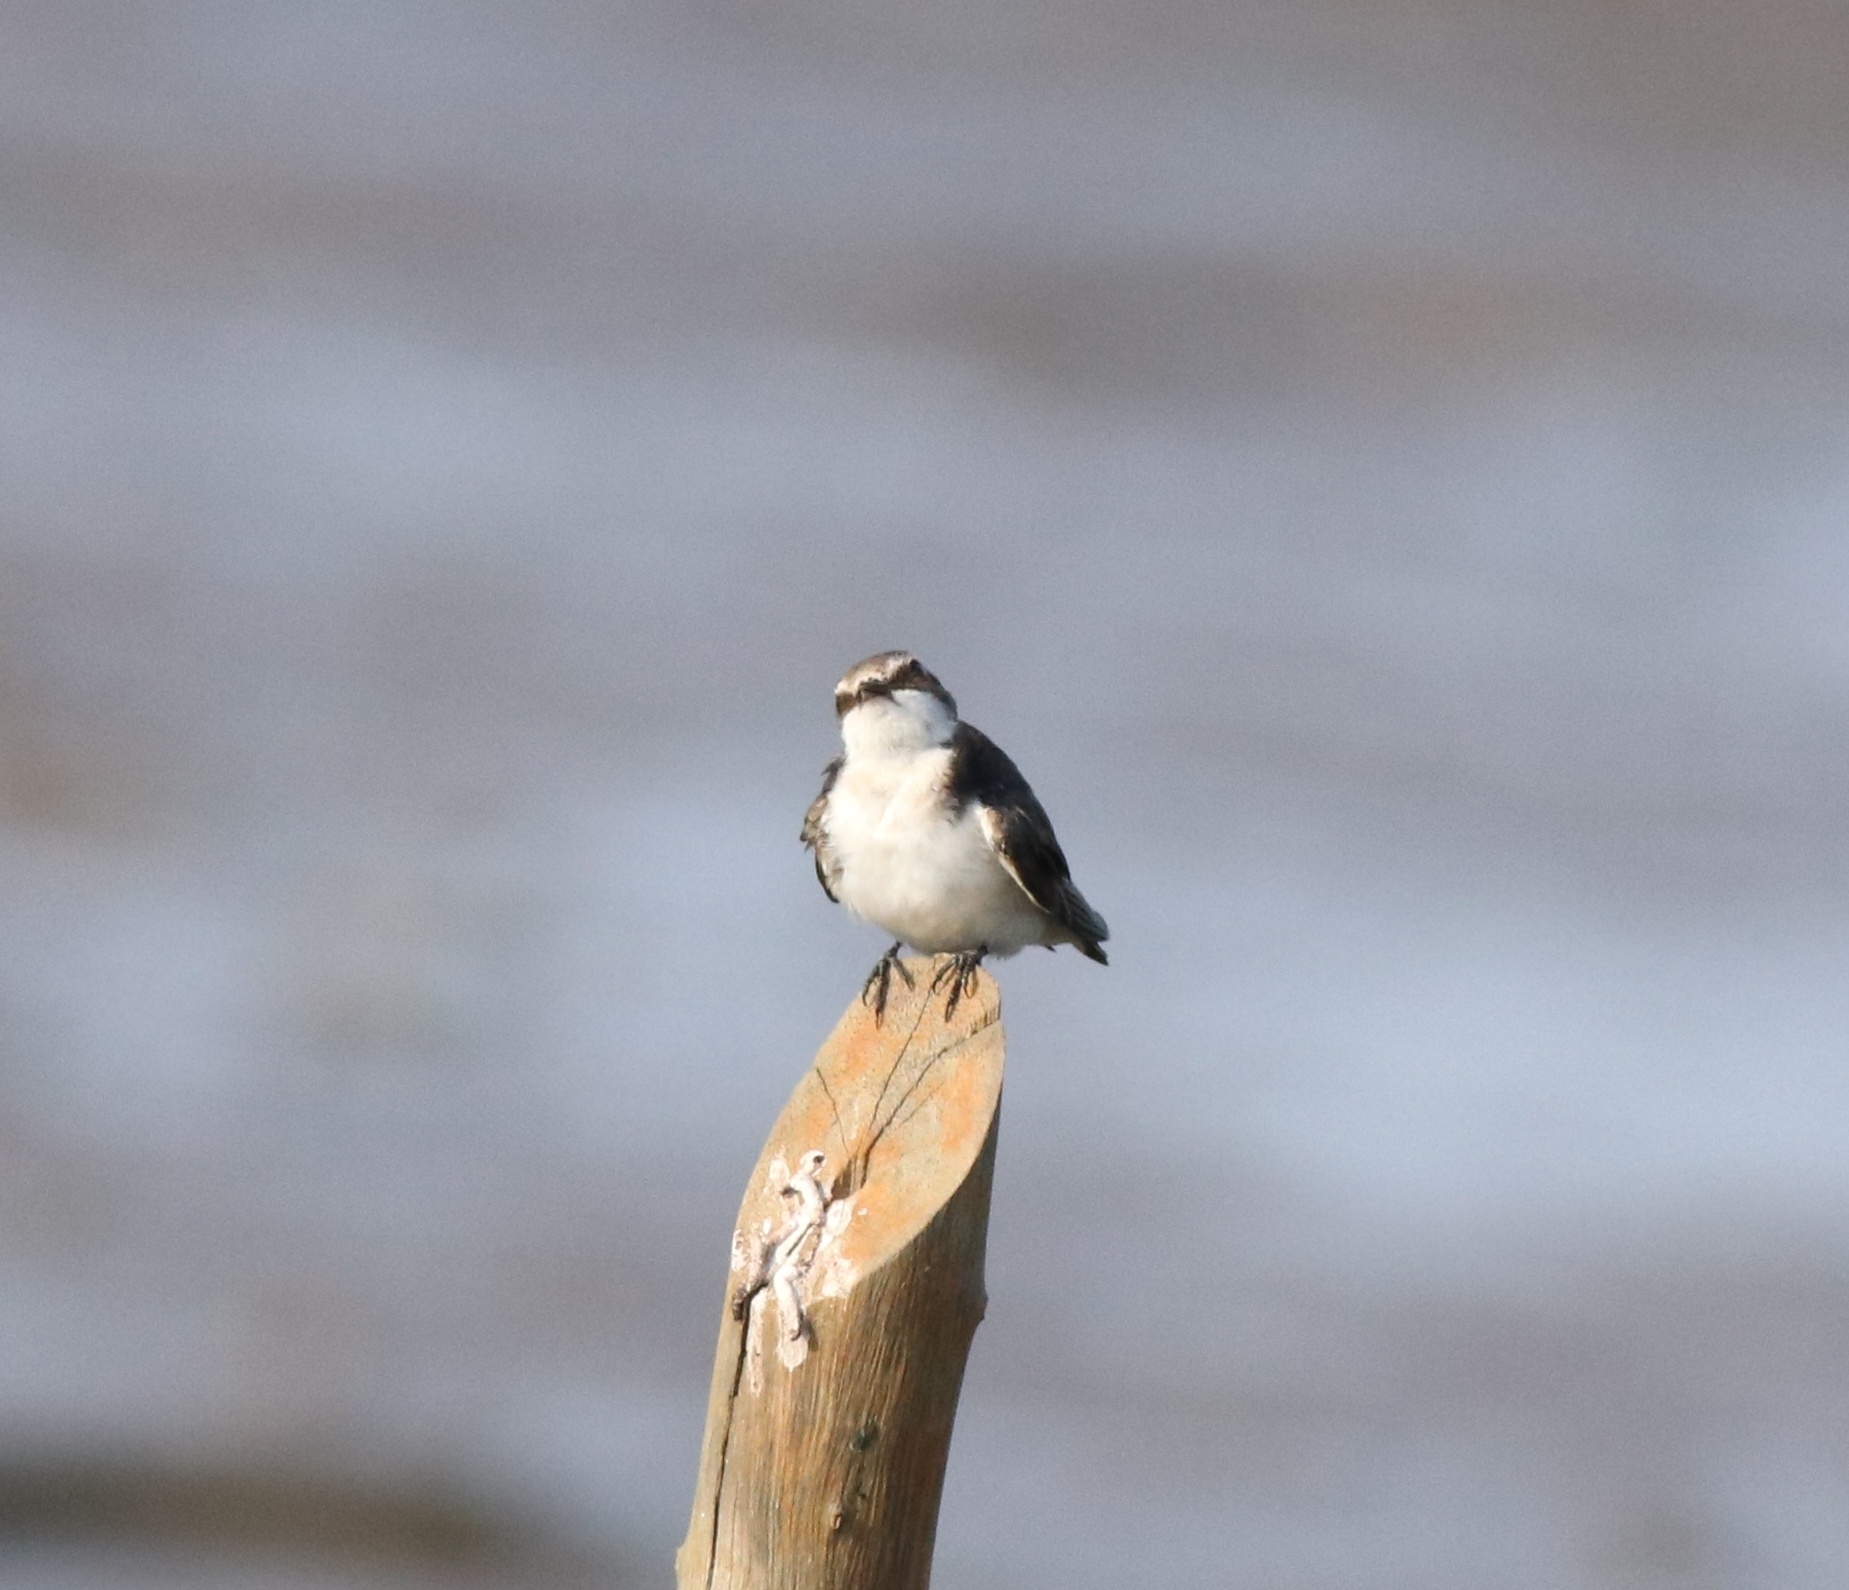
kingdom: Animalia
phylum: Chordata
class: Aves
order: Passeriformes
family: Hirundinidae
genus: Hirundo
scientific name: Hirundo smithii
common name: Wire-tailed swallow
